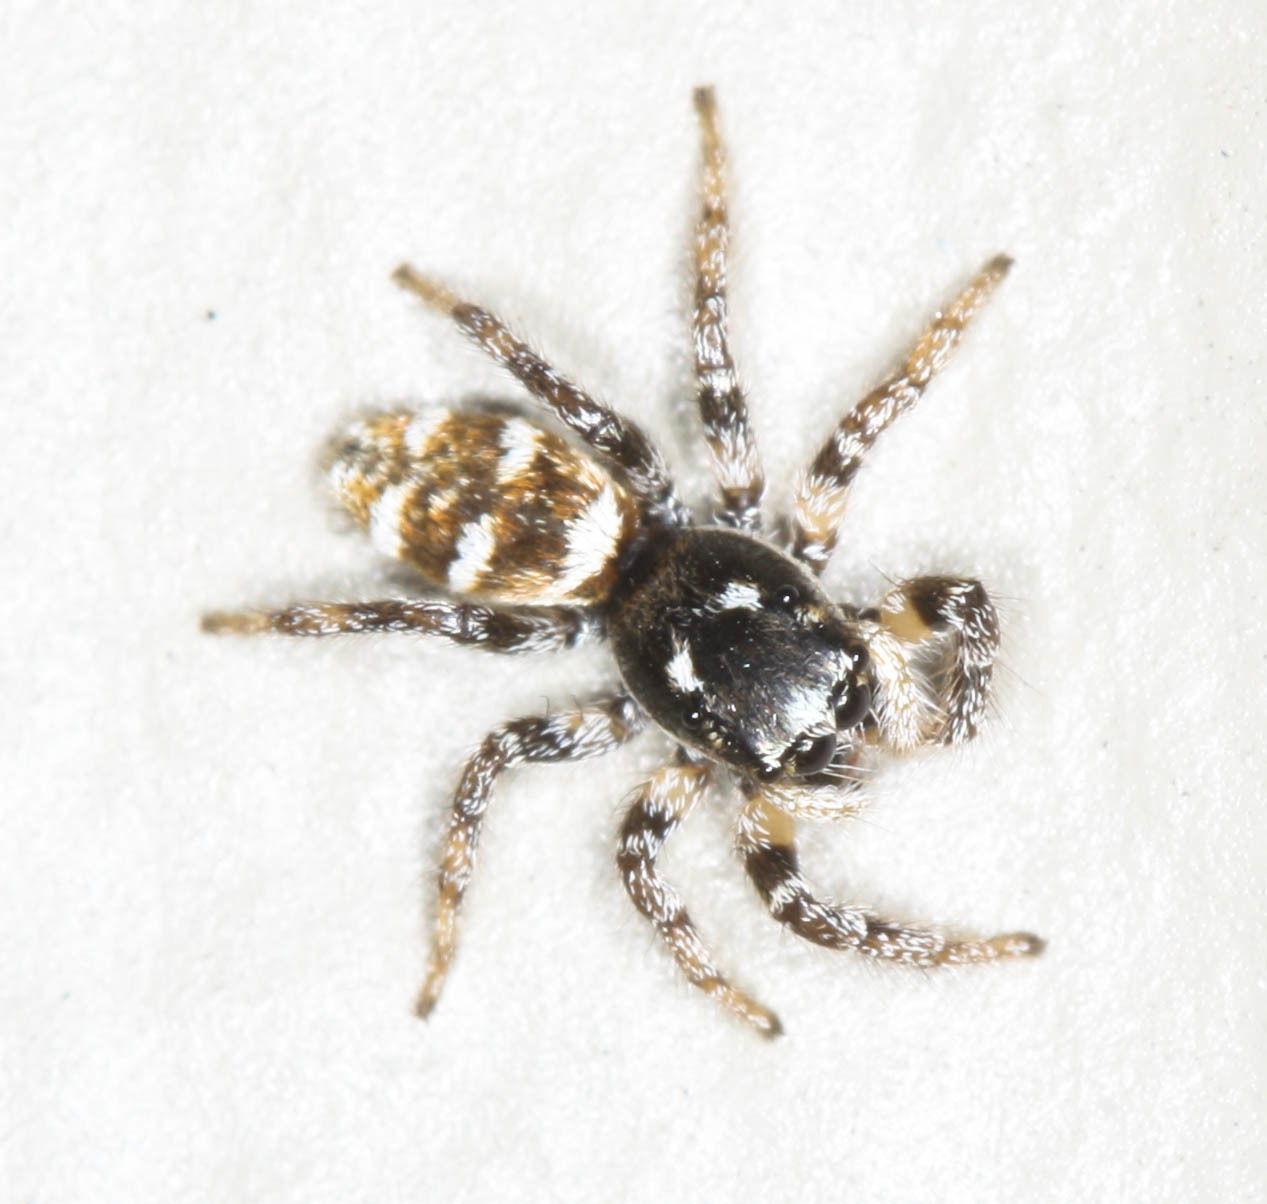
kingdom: Animalia
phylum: Arthropoda
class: Arachnida
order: Araneae
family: Salticidae
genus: Salticus
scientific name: Salticus scenicus
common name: Zebra jumper
